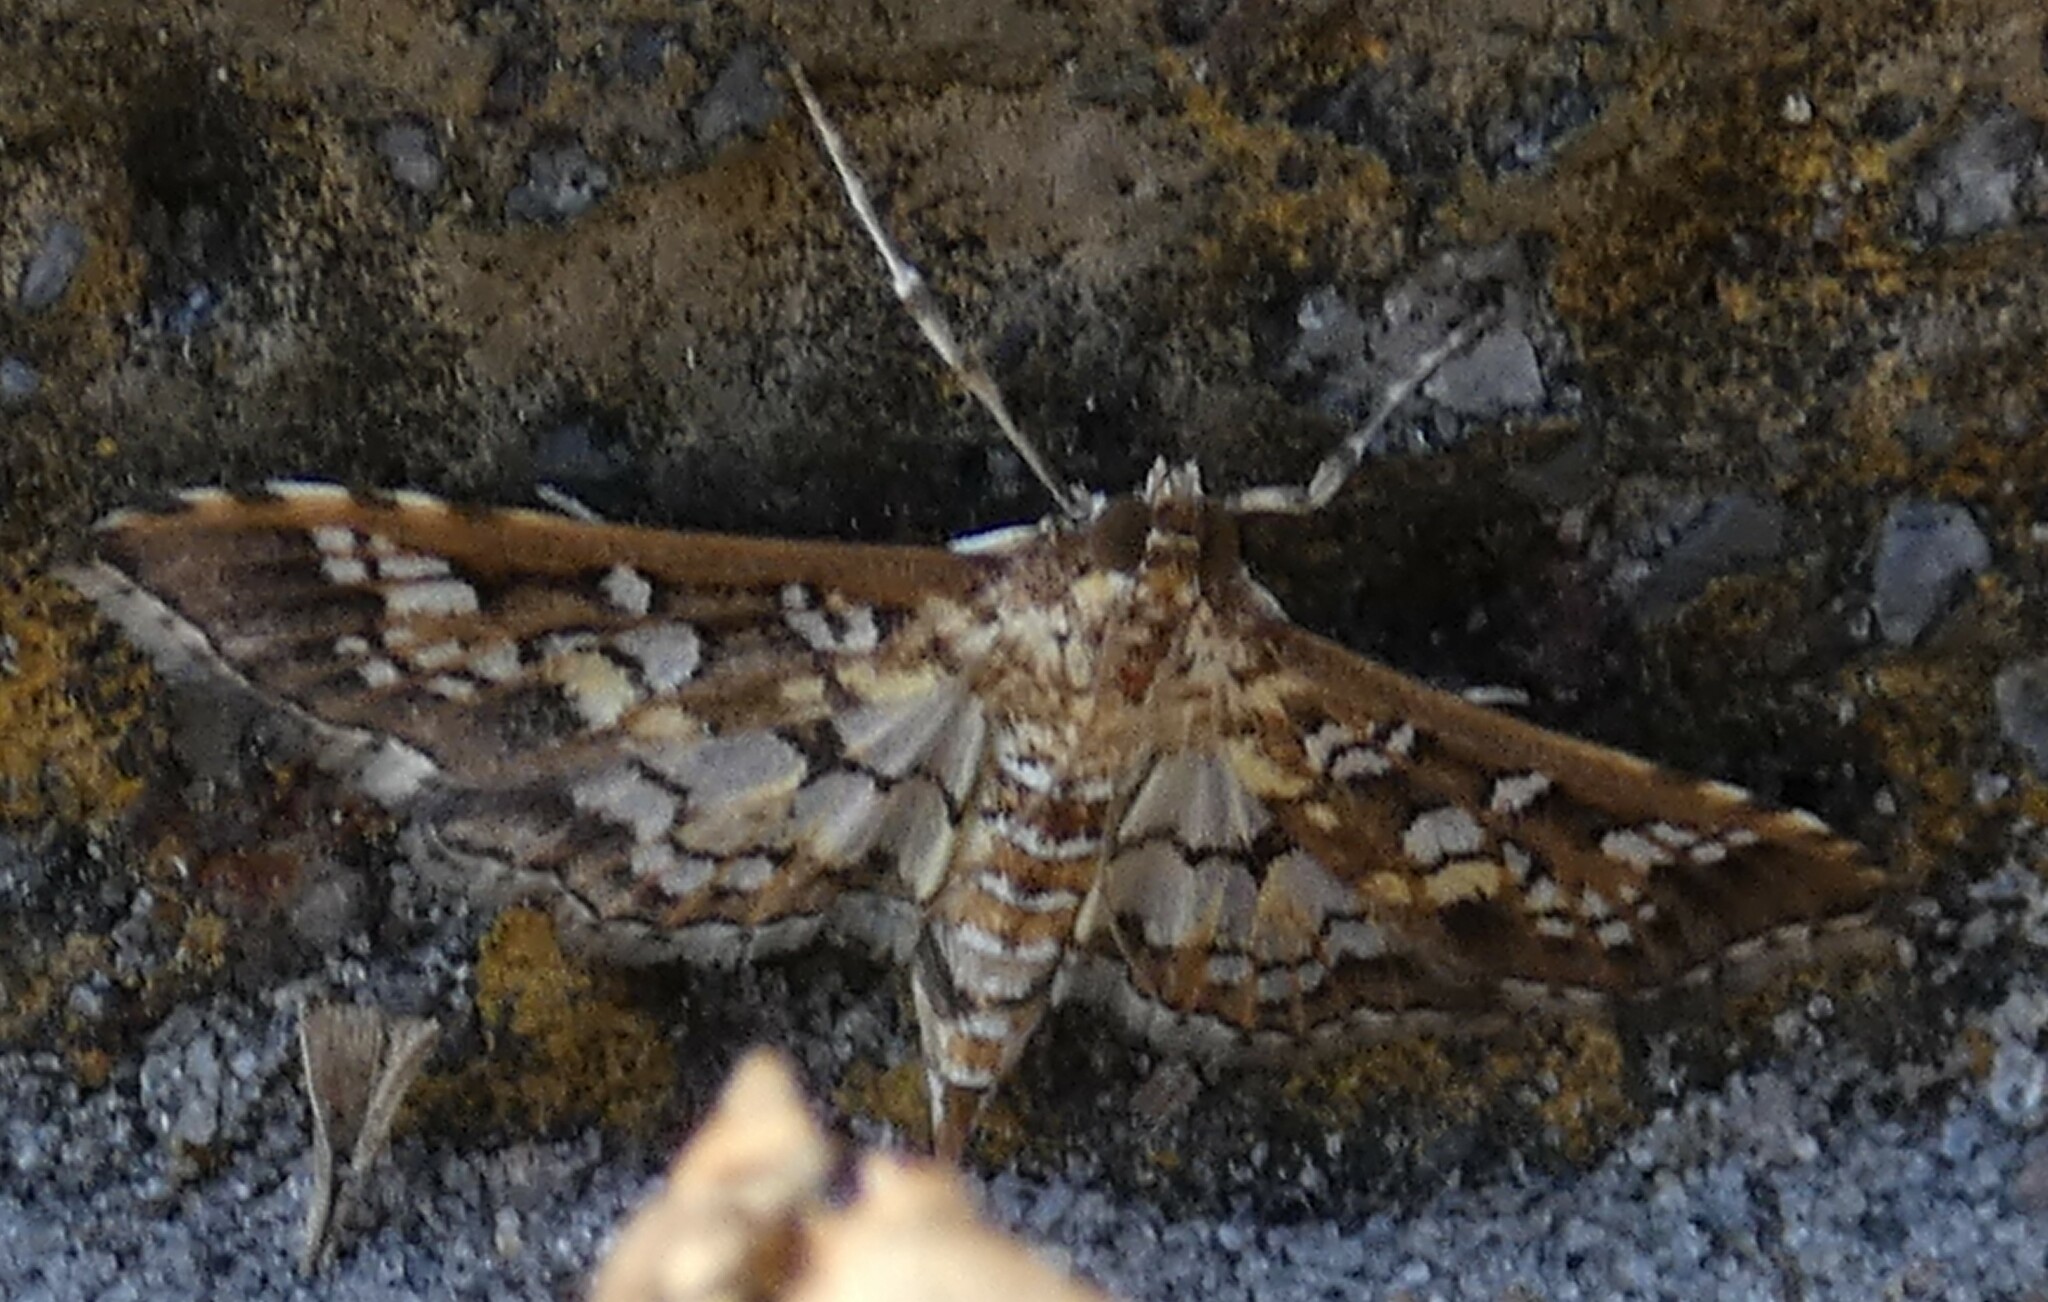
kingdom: Animalia
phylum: Arthropoda
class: Insecta
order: Lepidoptera
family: Crambidae
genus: Samea
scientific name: Samea ecclesialis
